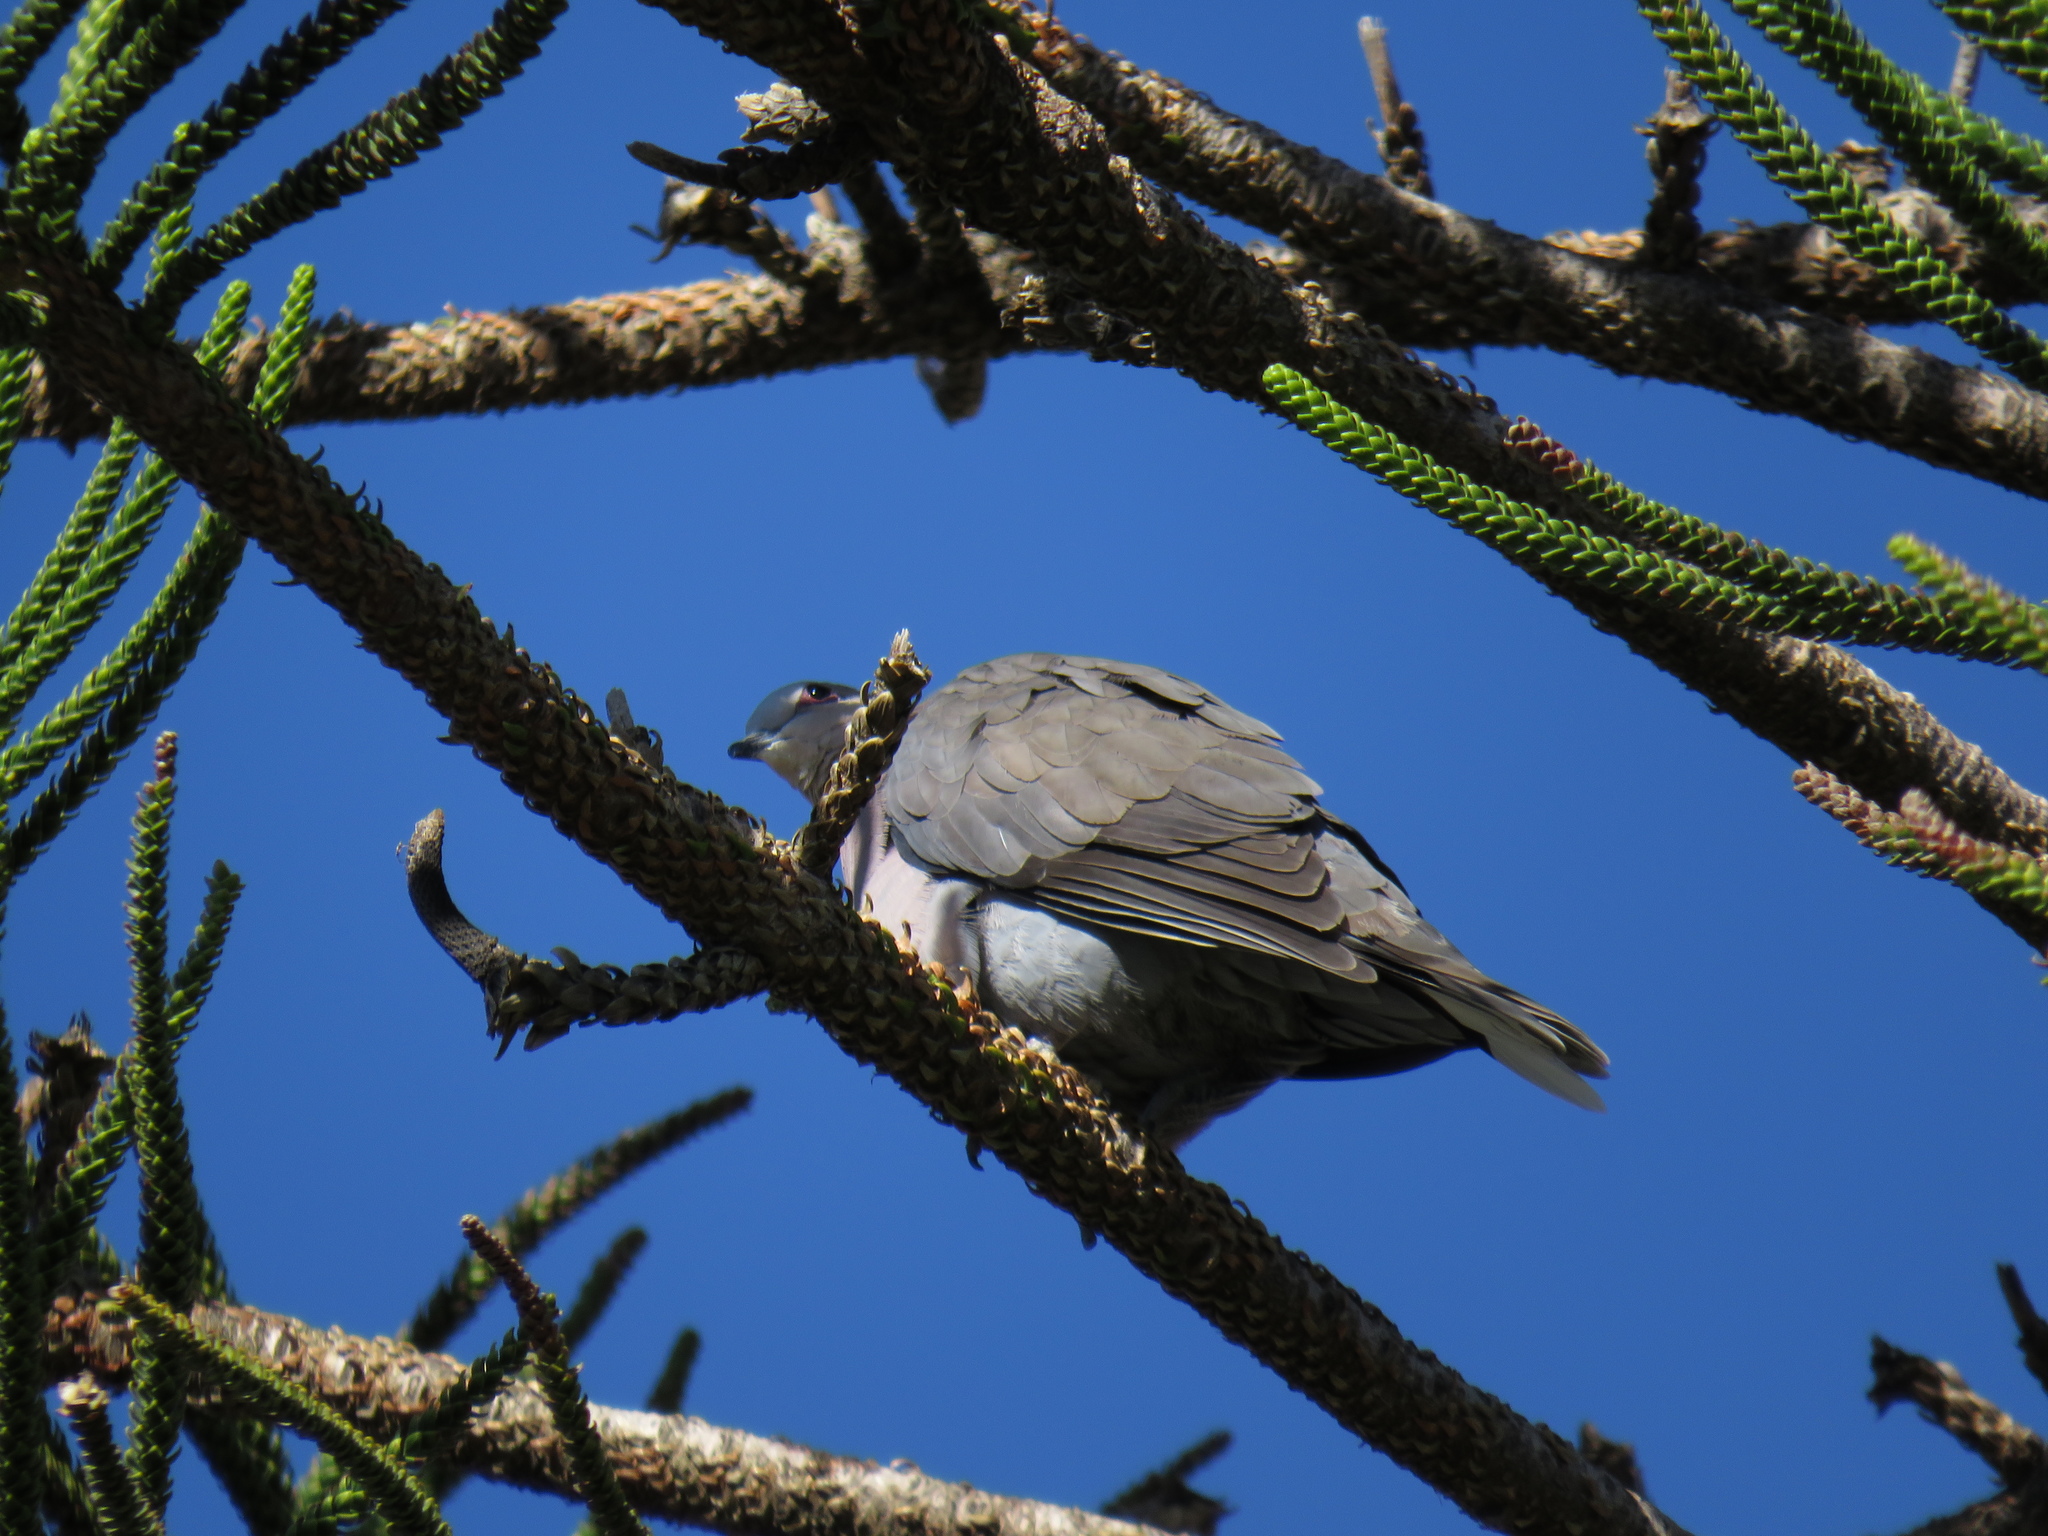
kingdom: Animalia
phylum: Chordata
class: Aves
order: Columbiformes
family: Columbidae
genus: Streptopelia
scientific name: Streptopelia semitorquata
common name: Red-eyed dove
